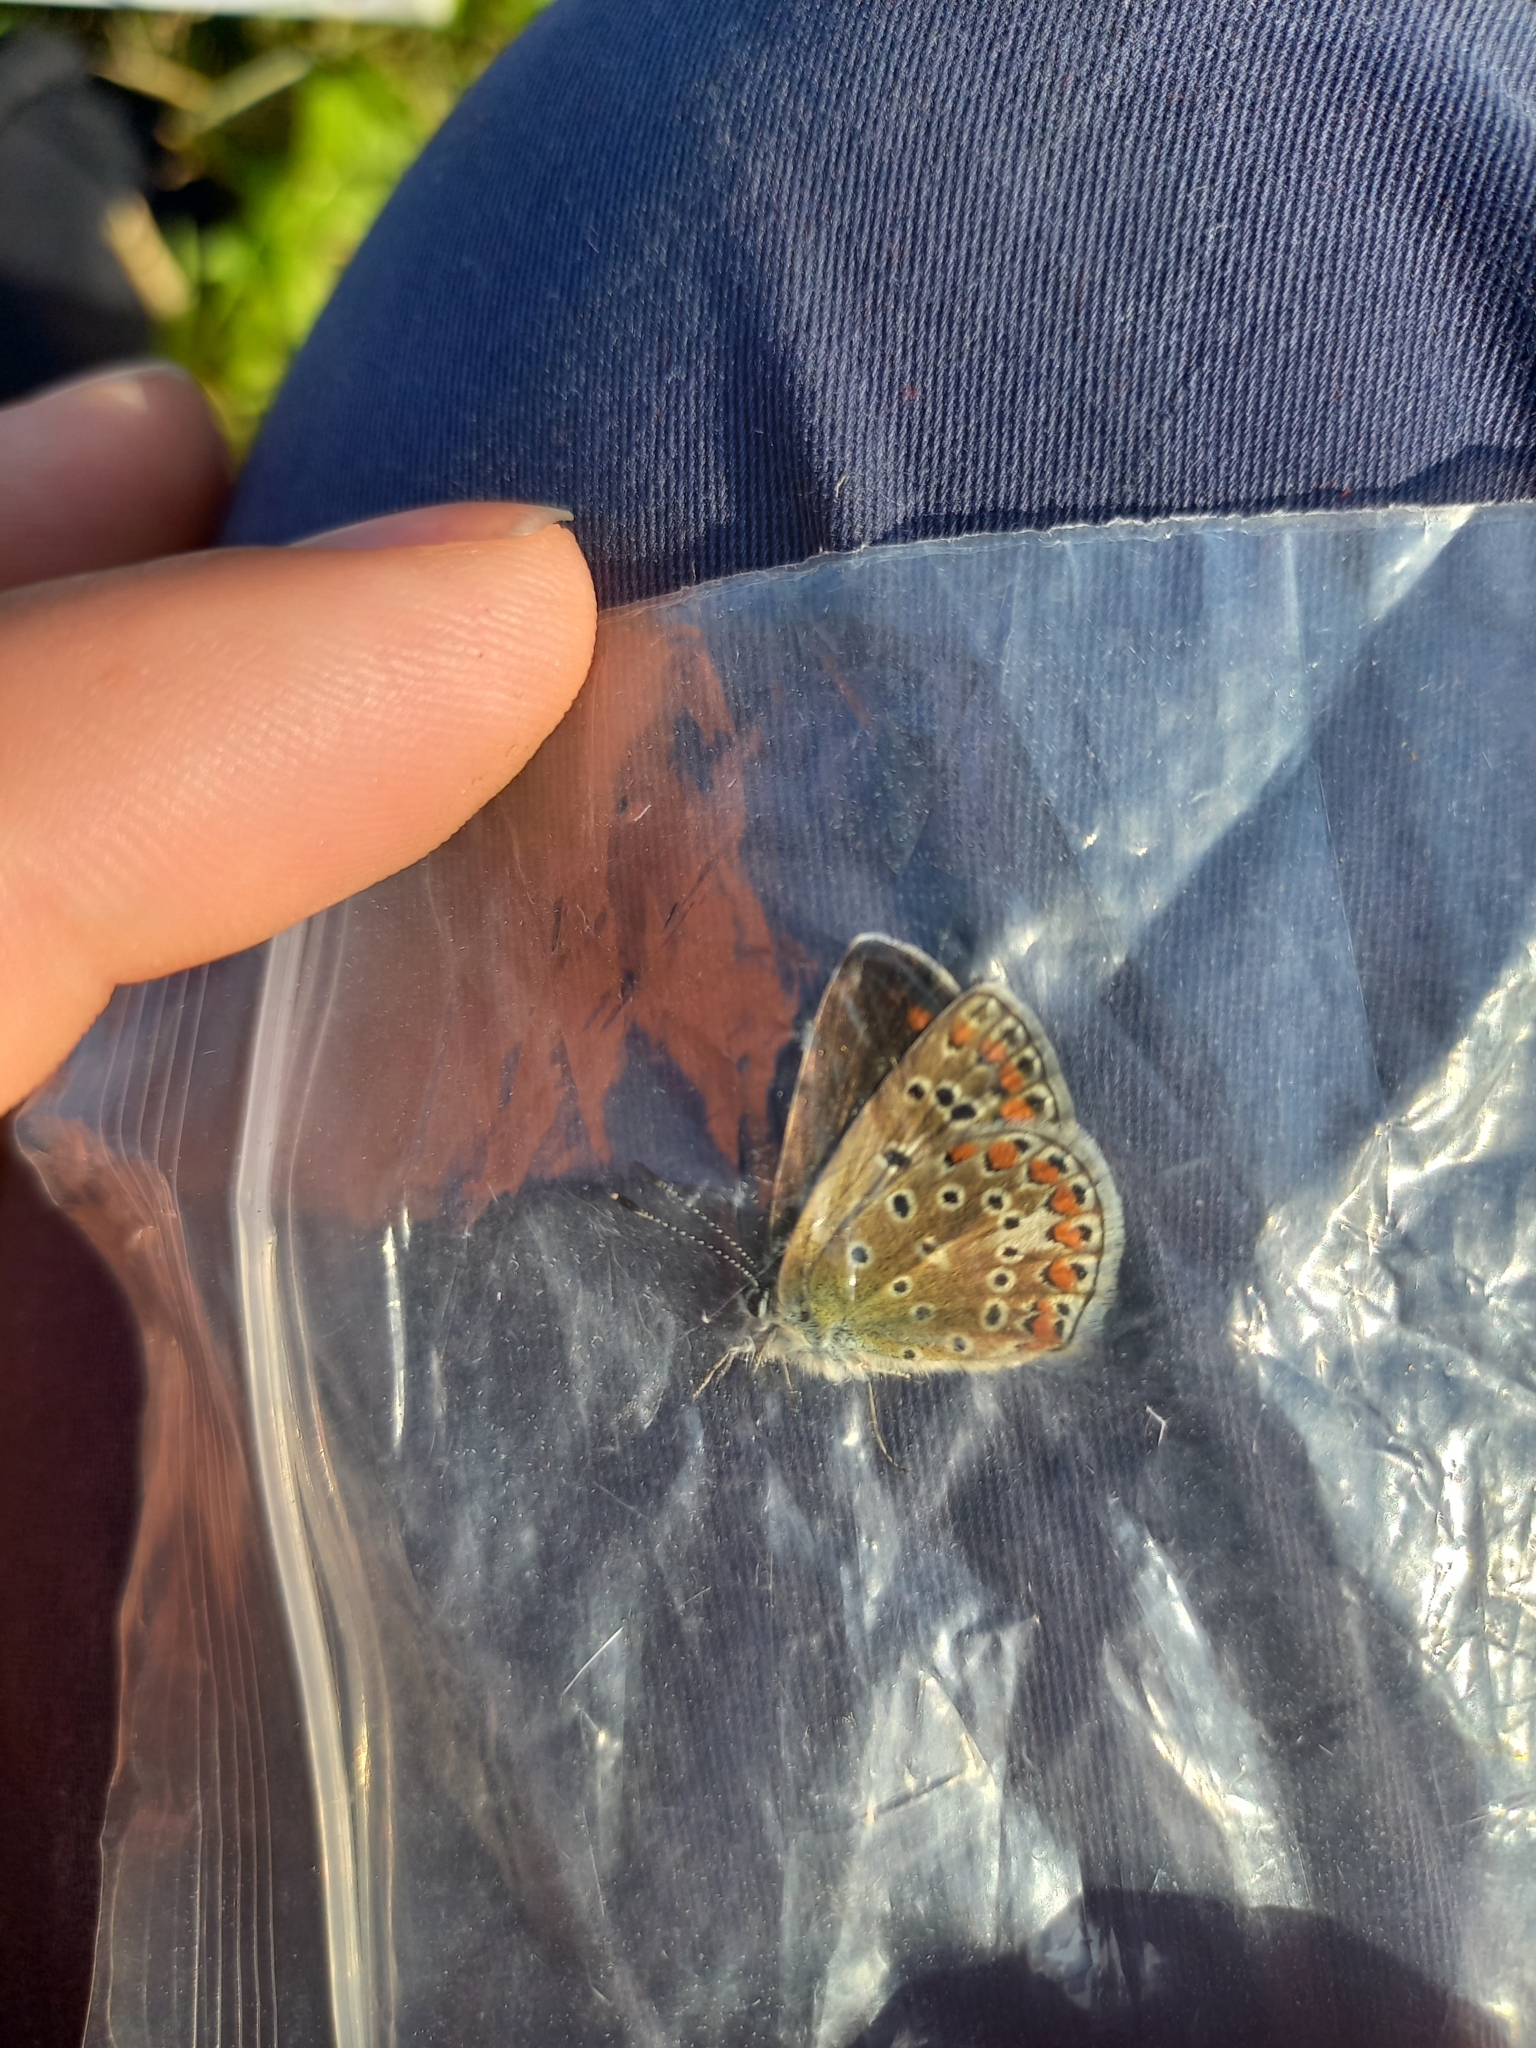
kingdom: Animalia
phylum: Arthropoda
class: Insecta
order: Lepidoptera
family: Lycaenidae
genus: Polyommatus
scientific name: Polyommatus icarus
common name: Common blue
